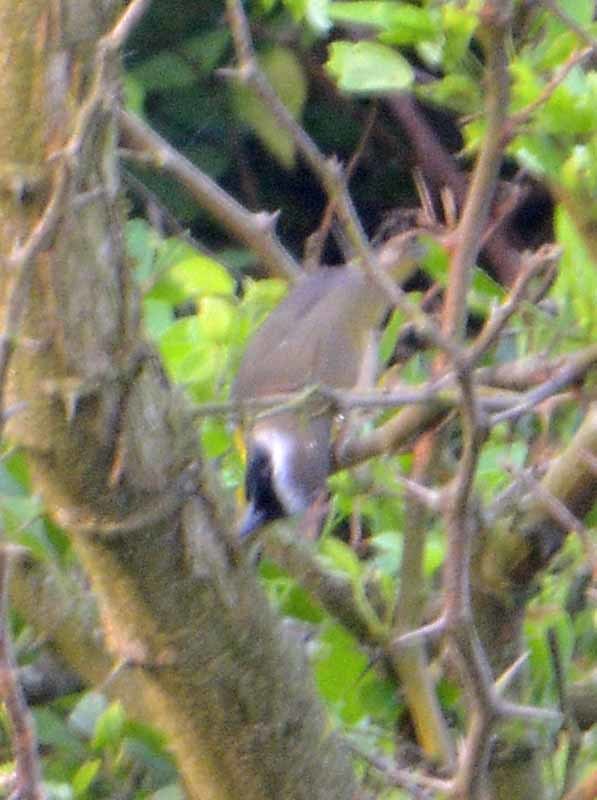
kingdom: Animalia
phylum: Chordata
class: Aves
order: Passeriformes
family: Parulidae
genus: Geothlypis
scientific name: Geothlypis trichas
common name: Common yellowthroat
